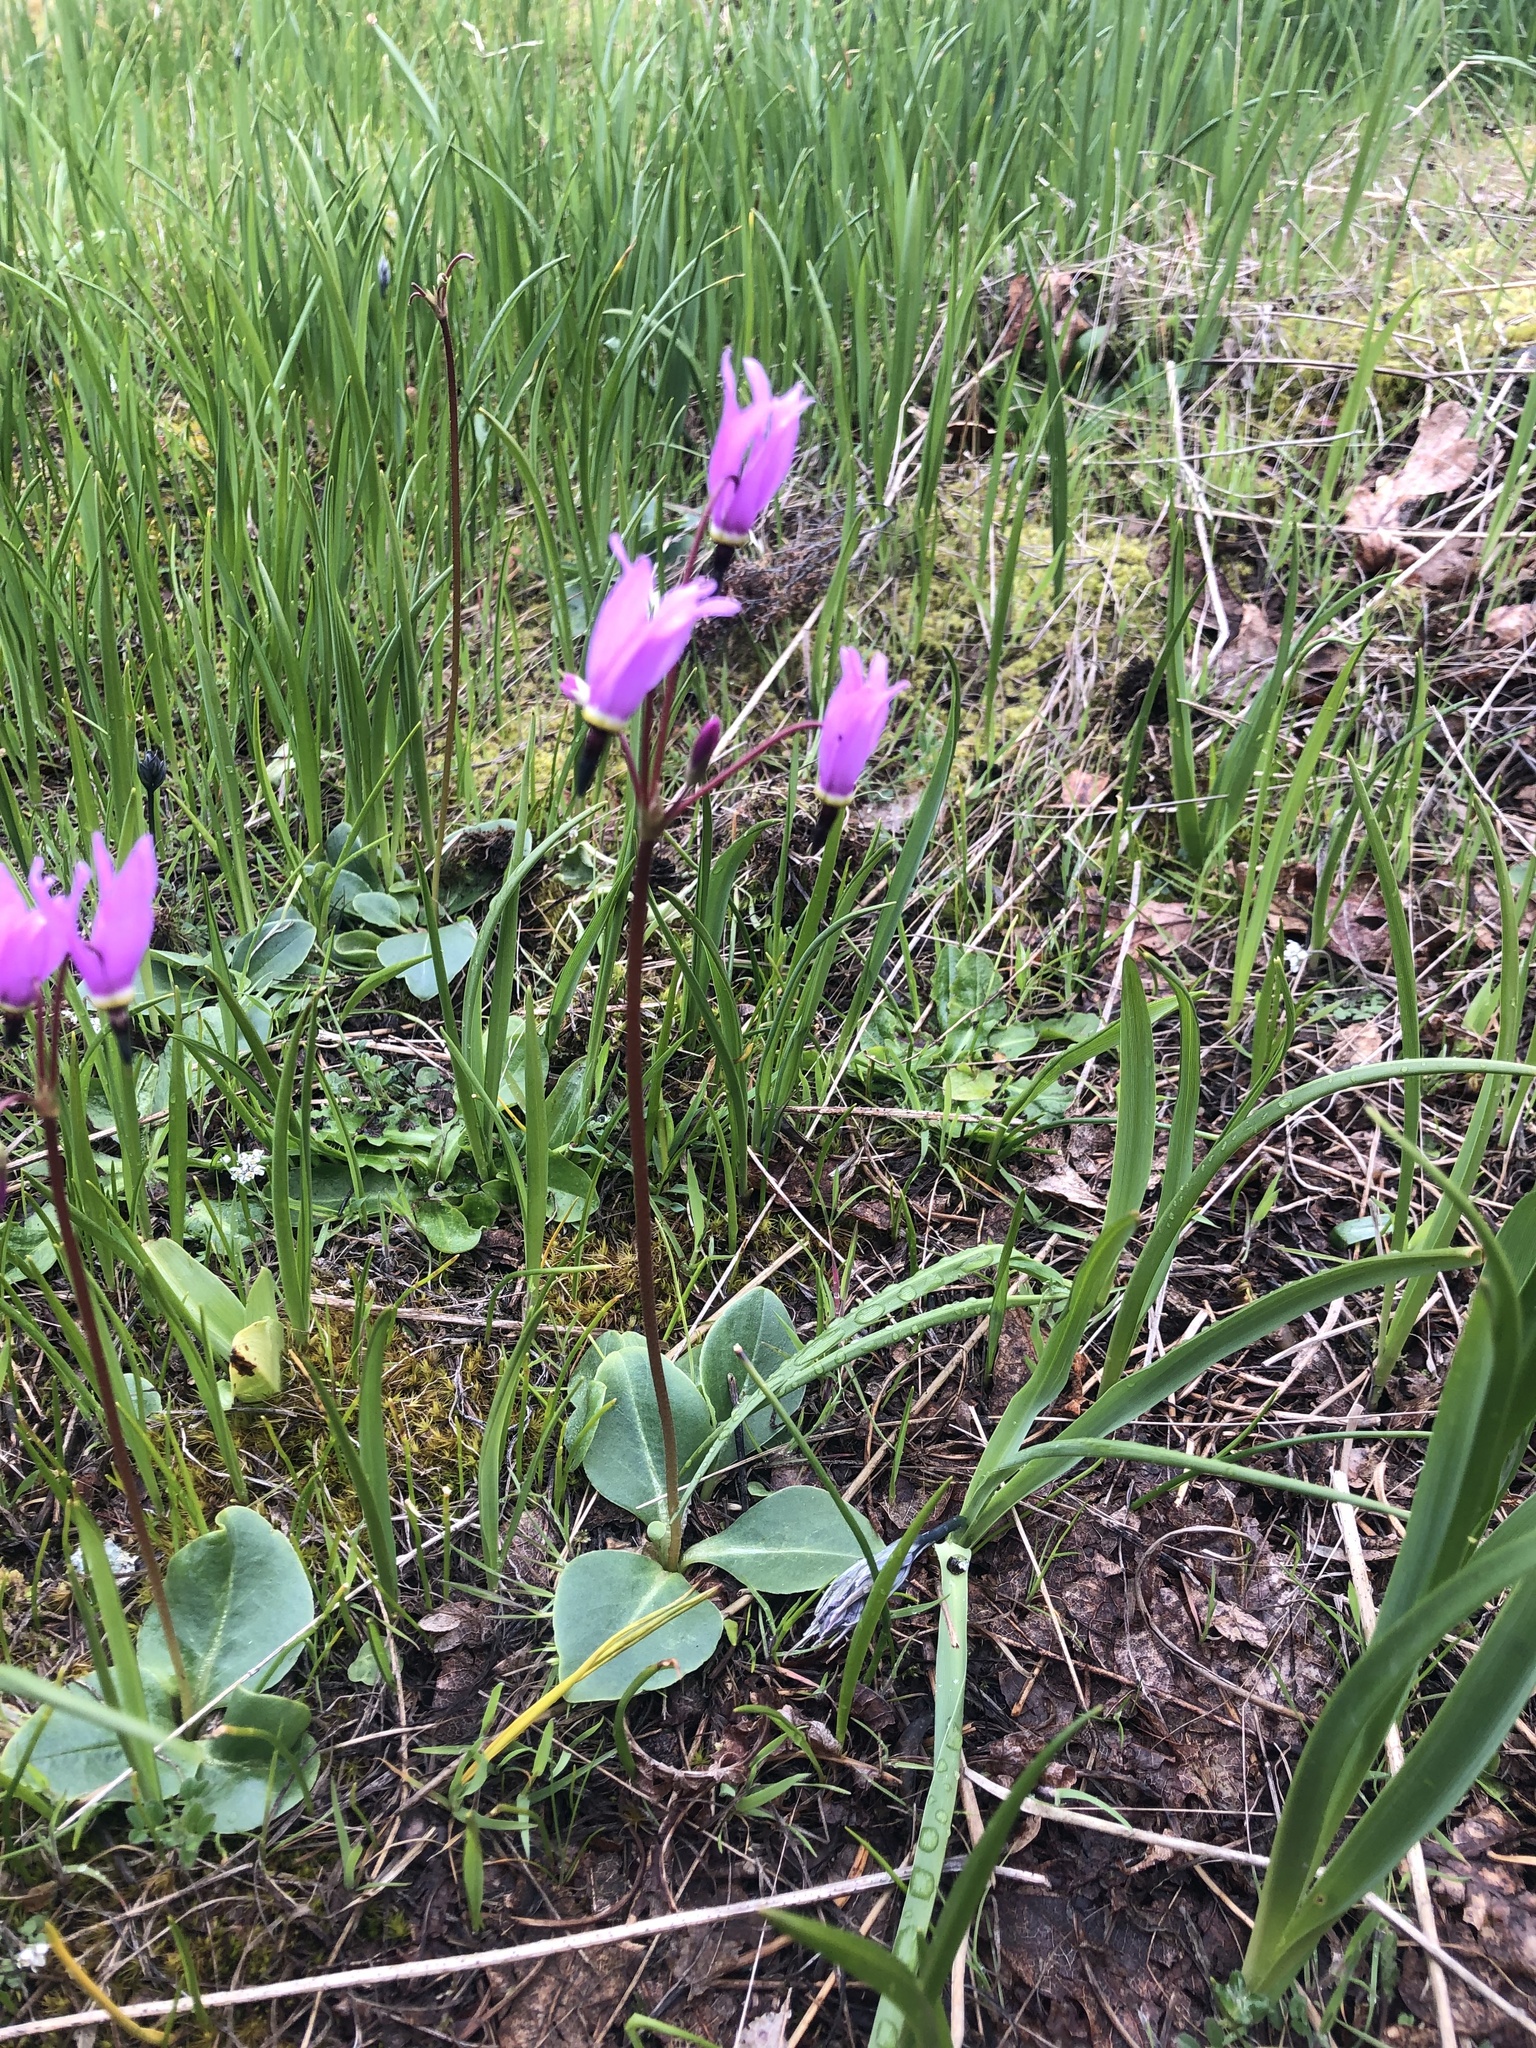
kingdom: Plantae
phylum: Tracheophyta
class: Magnoliopsida
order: Ericales
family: Primulaceae
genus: Dodecatheon
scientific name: Dodecatheon hendersonii
